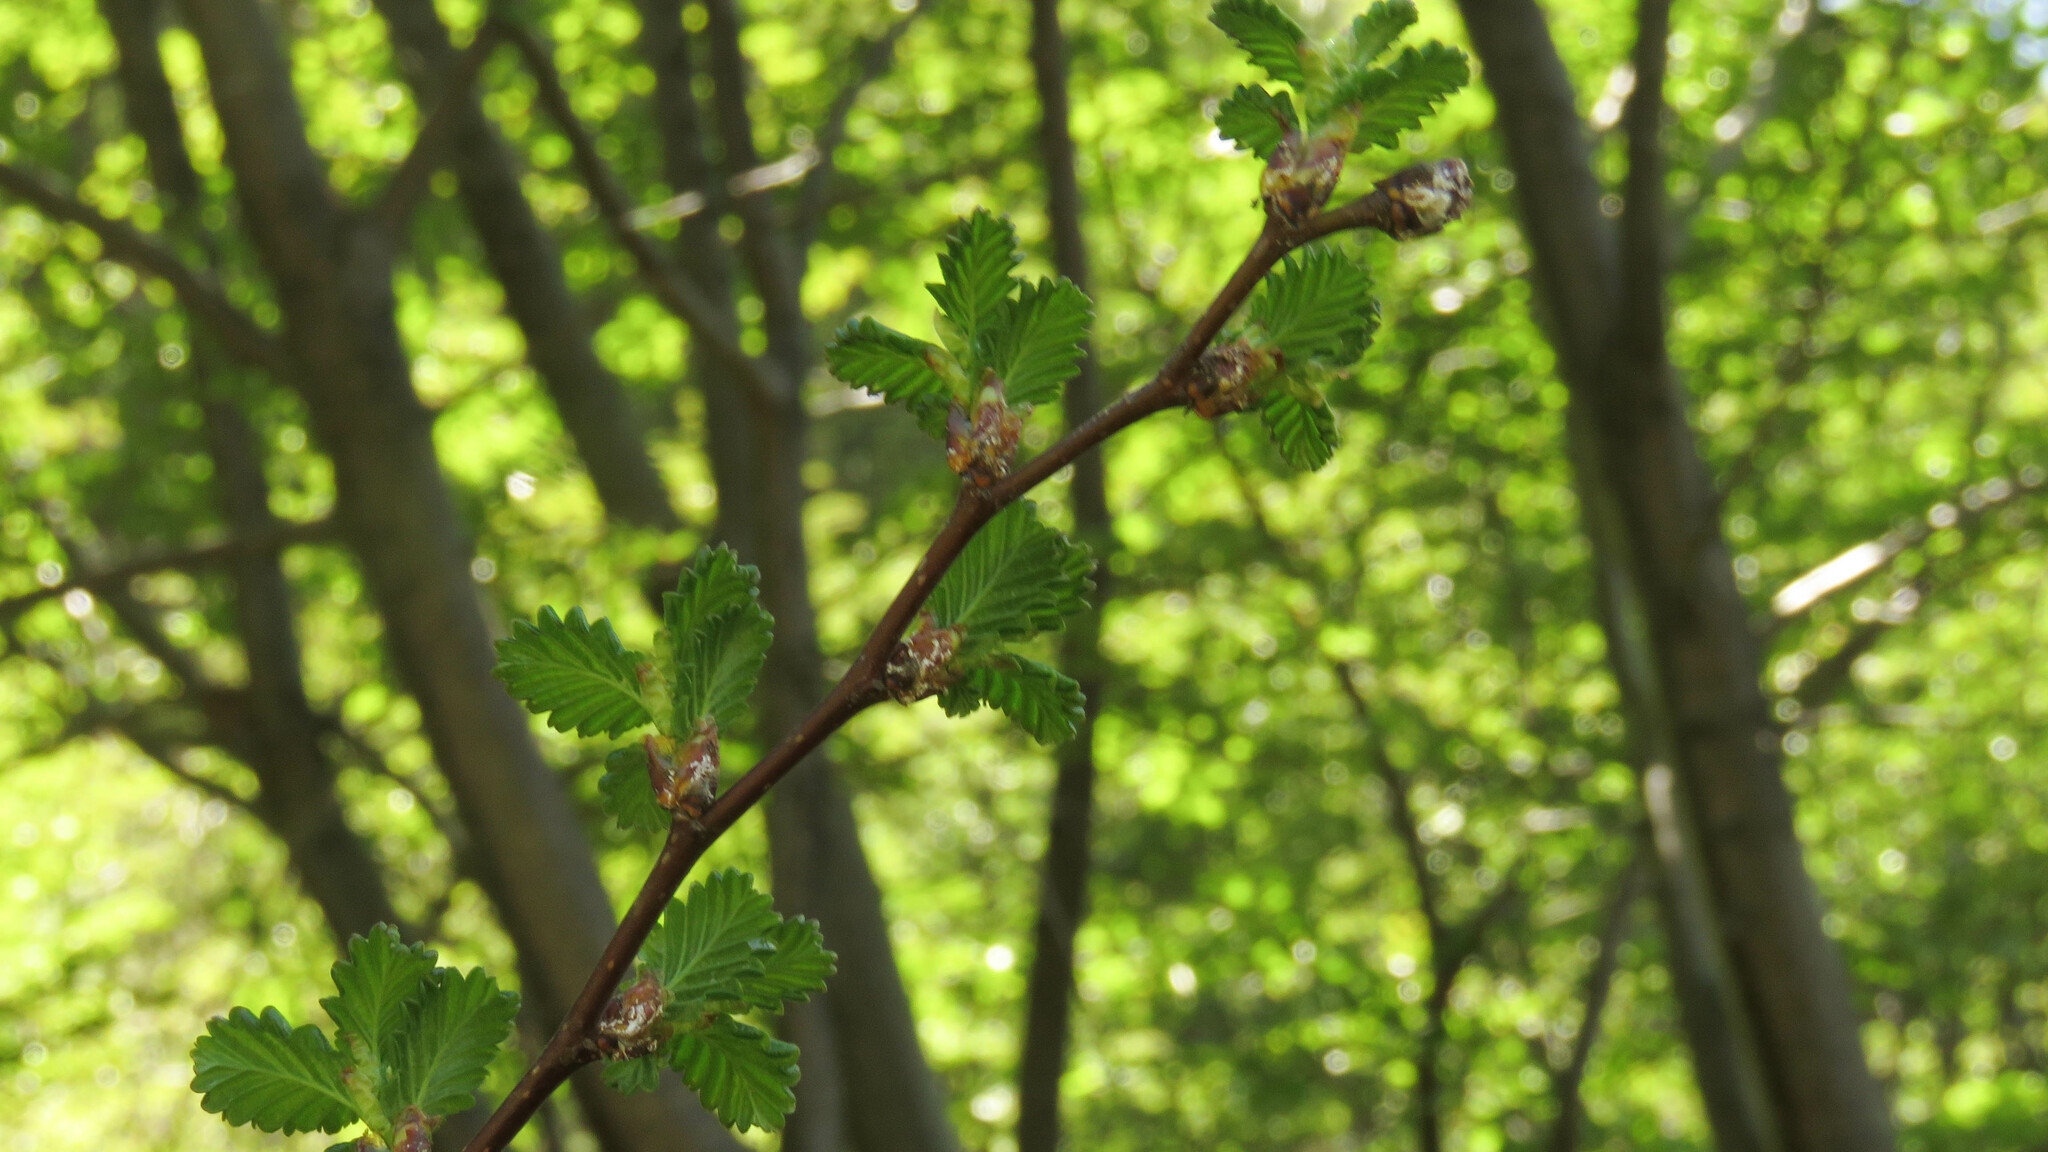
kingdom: Plantae
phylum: Tracheophyta
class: Magnoliopsida
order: Fagales
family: Nothofagaceae
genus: Nothofagus
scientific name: Nothofagus pumilio
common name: Lenga beech
